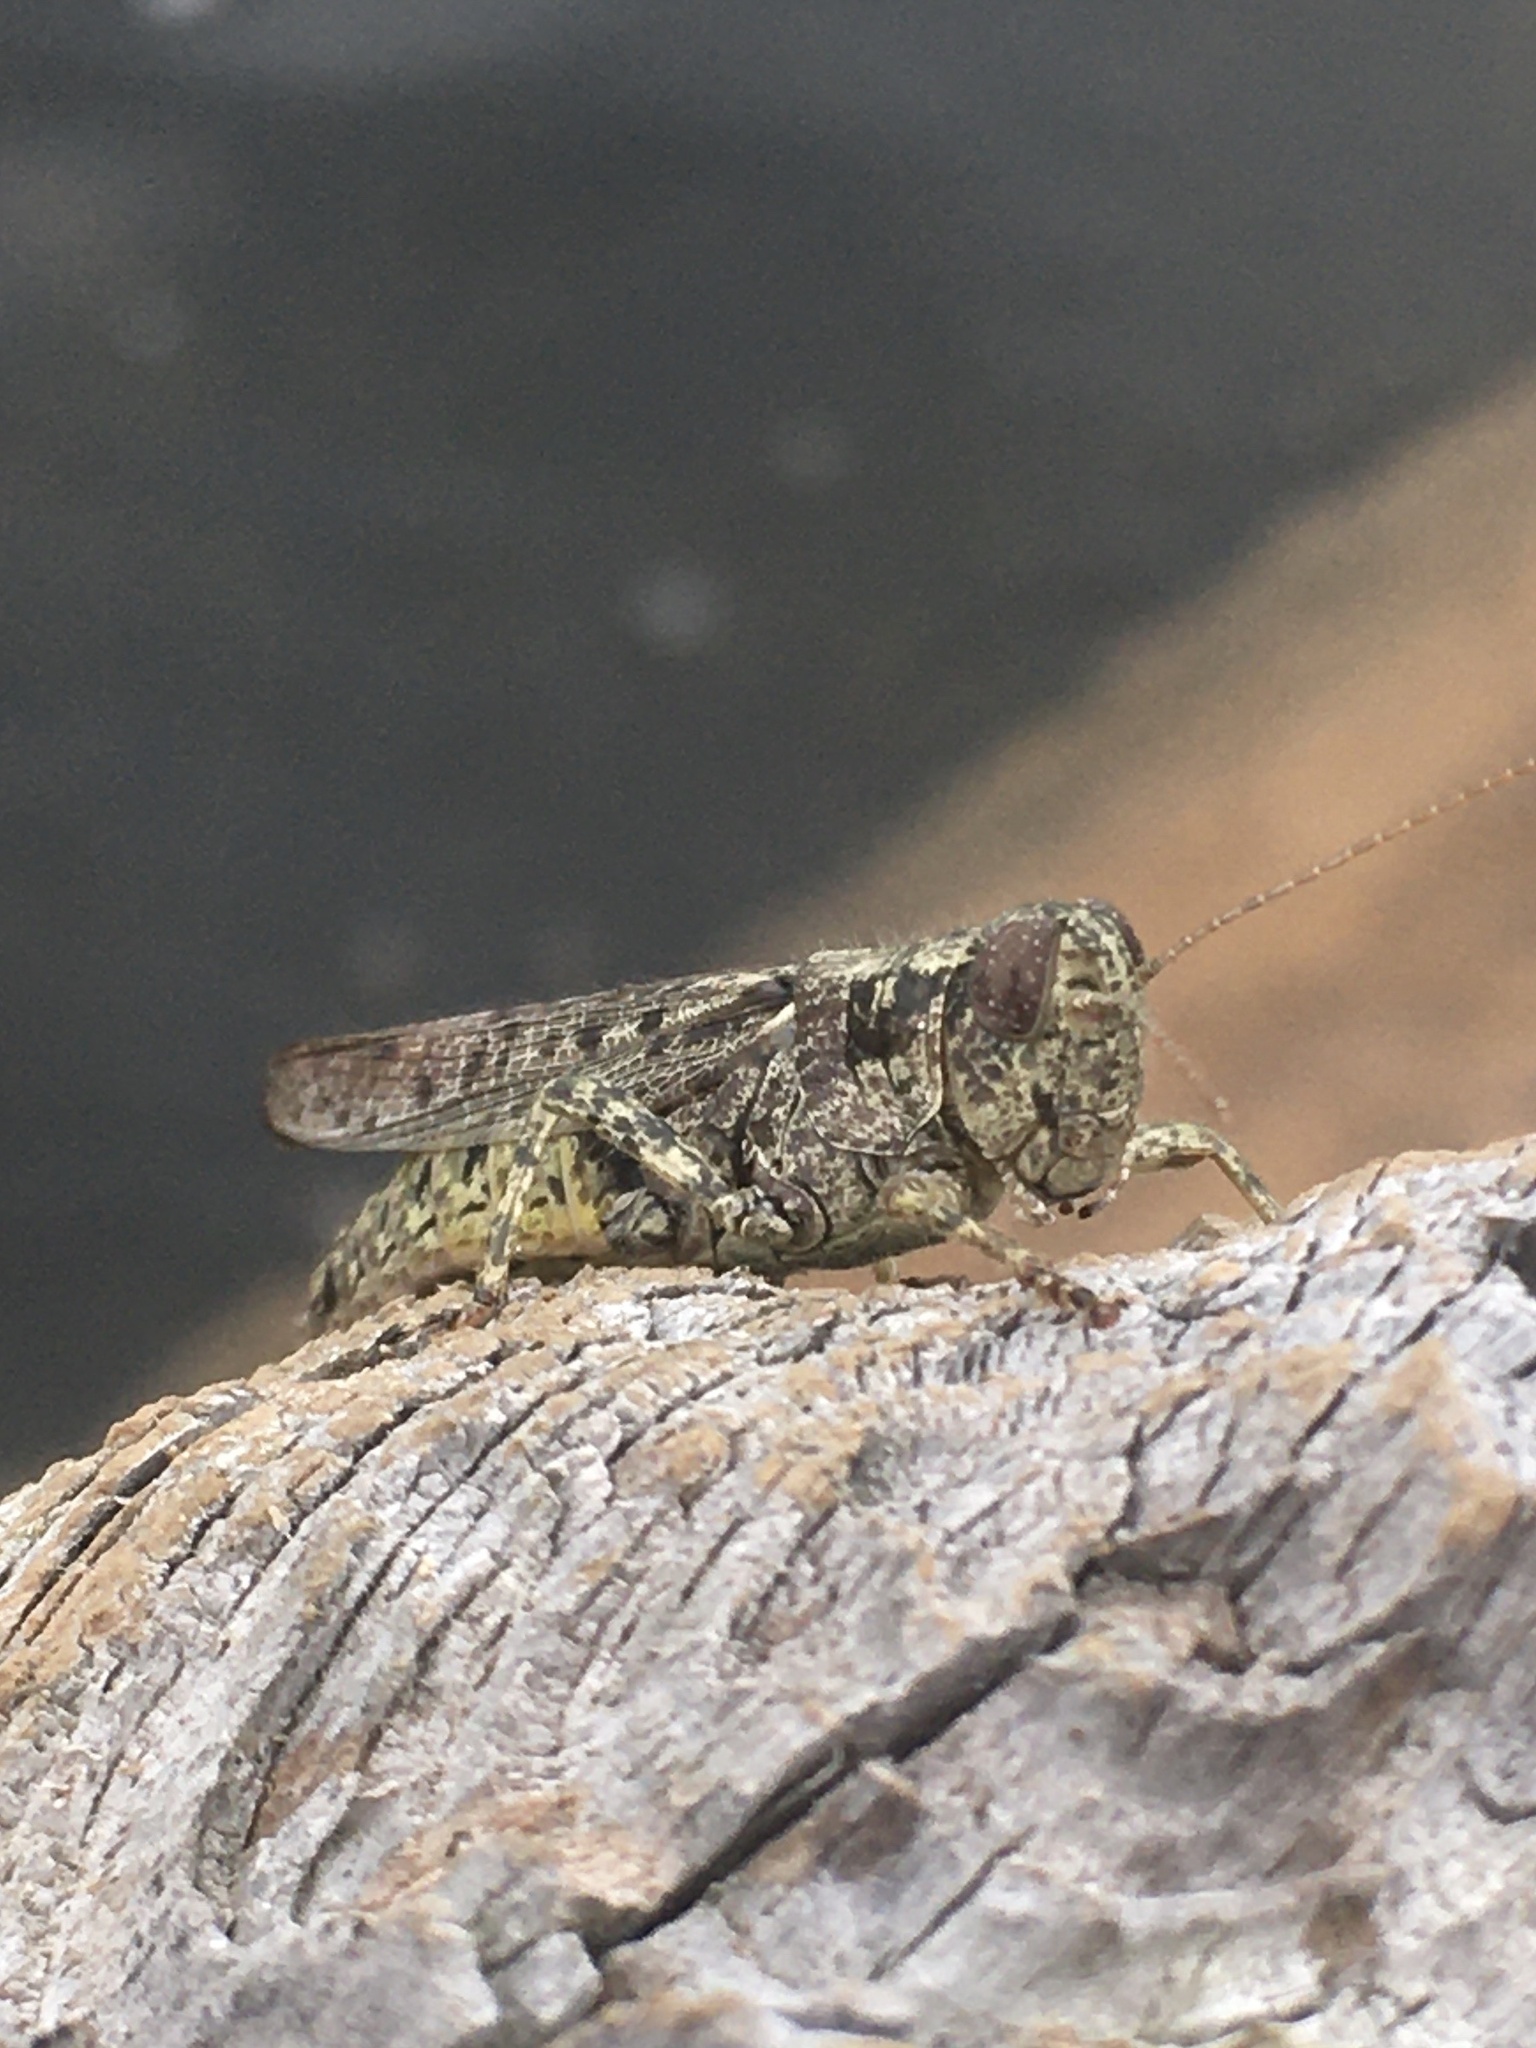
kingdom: Animalia
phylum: Arthropoda
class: Insecta
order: Orthoptera
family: Acrididae
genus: Melanoplus
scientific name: Melanoplus punctulatus
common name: Pine-tree spur-throat grasshopper
